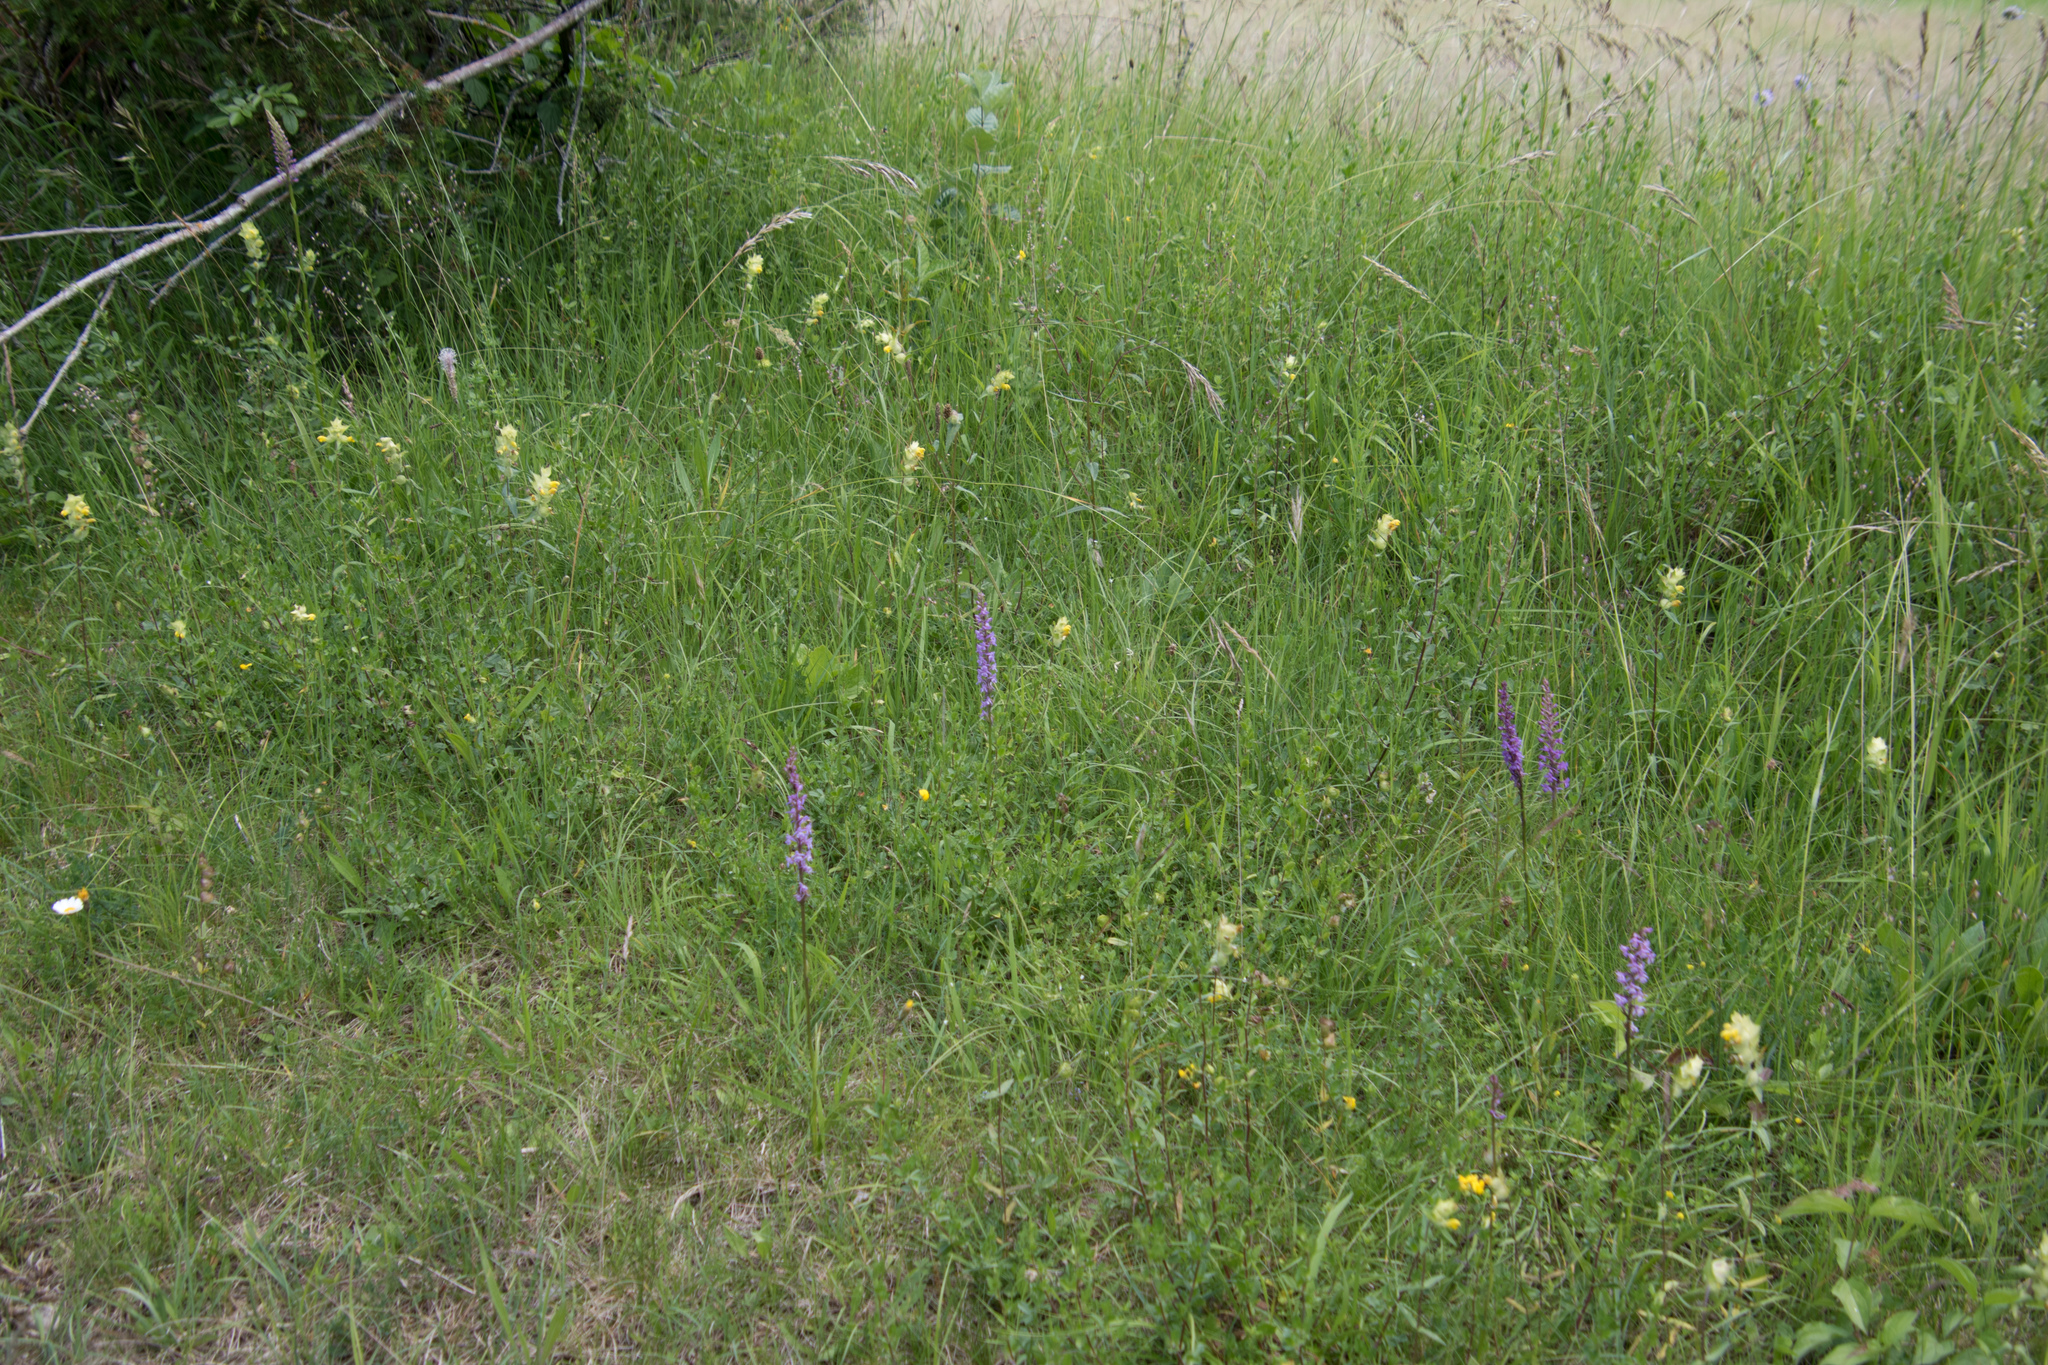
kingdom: Plantae
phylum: Tracheophyta
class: Liliopsida
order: Asparagales
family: Orchidaceae
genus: Gymnadenia
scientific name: Gymnadenia conopsea
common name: Fragrant orchid
